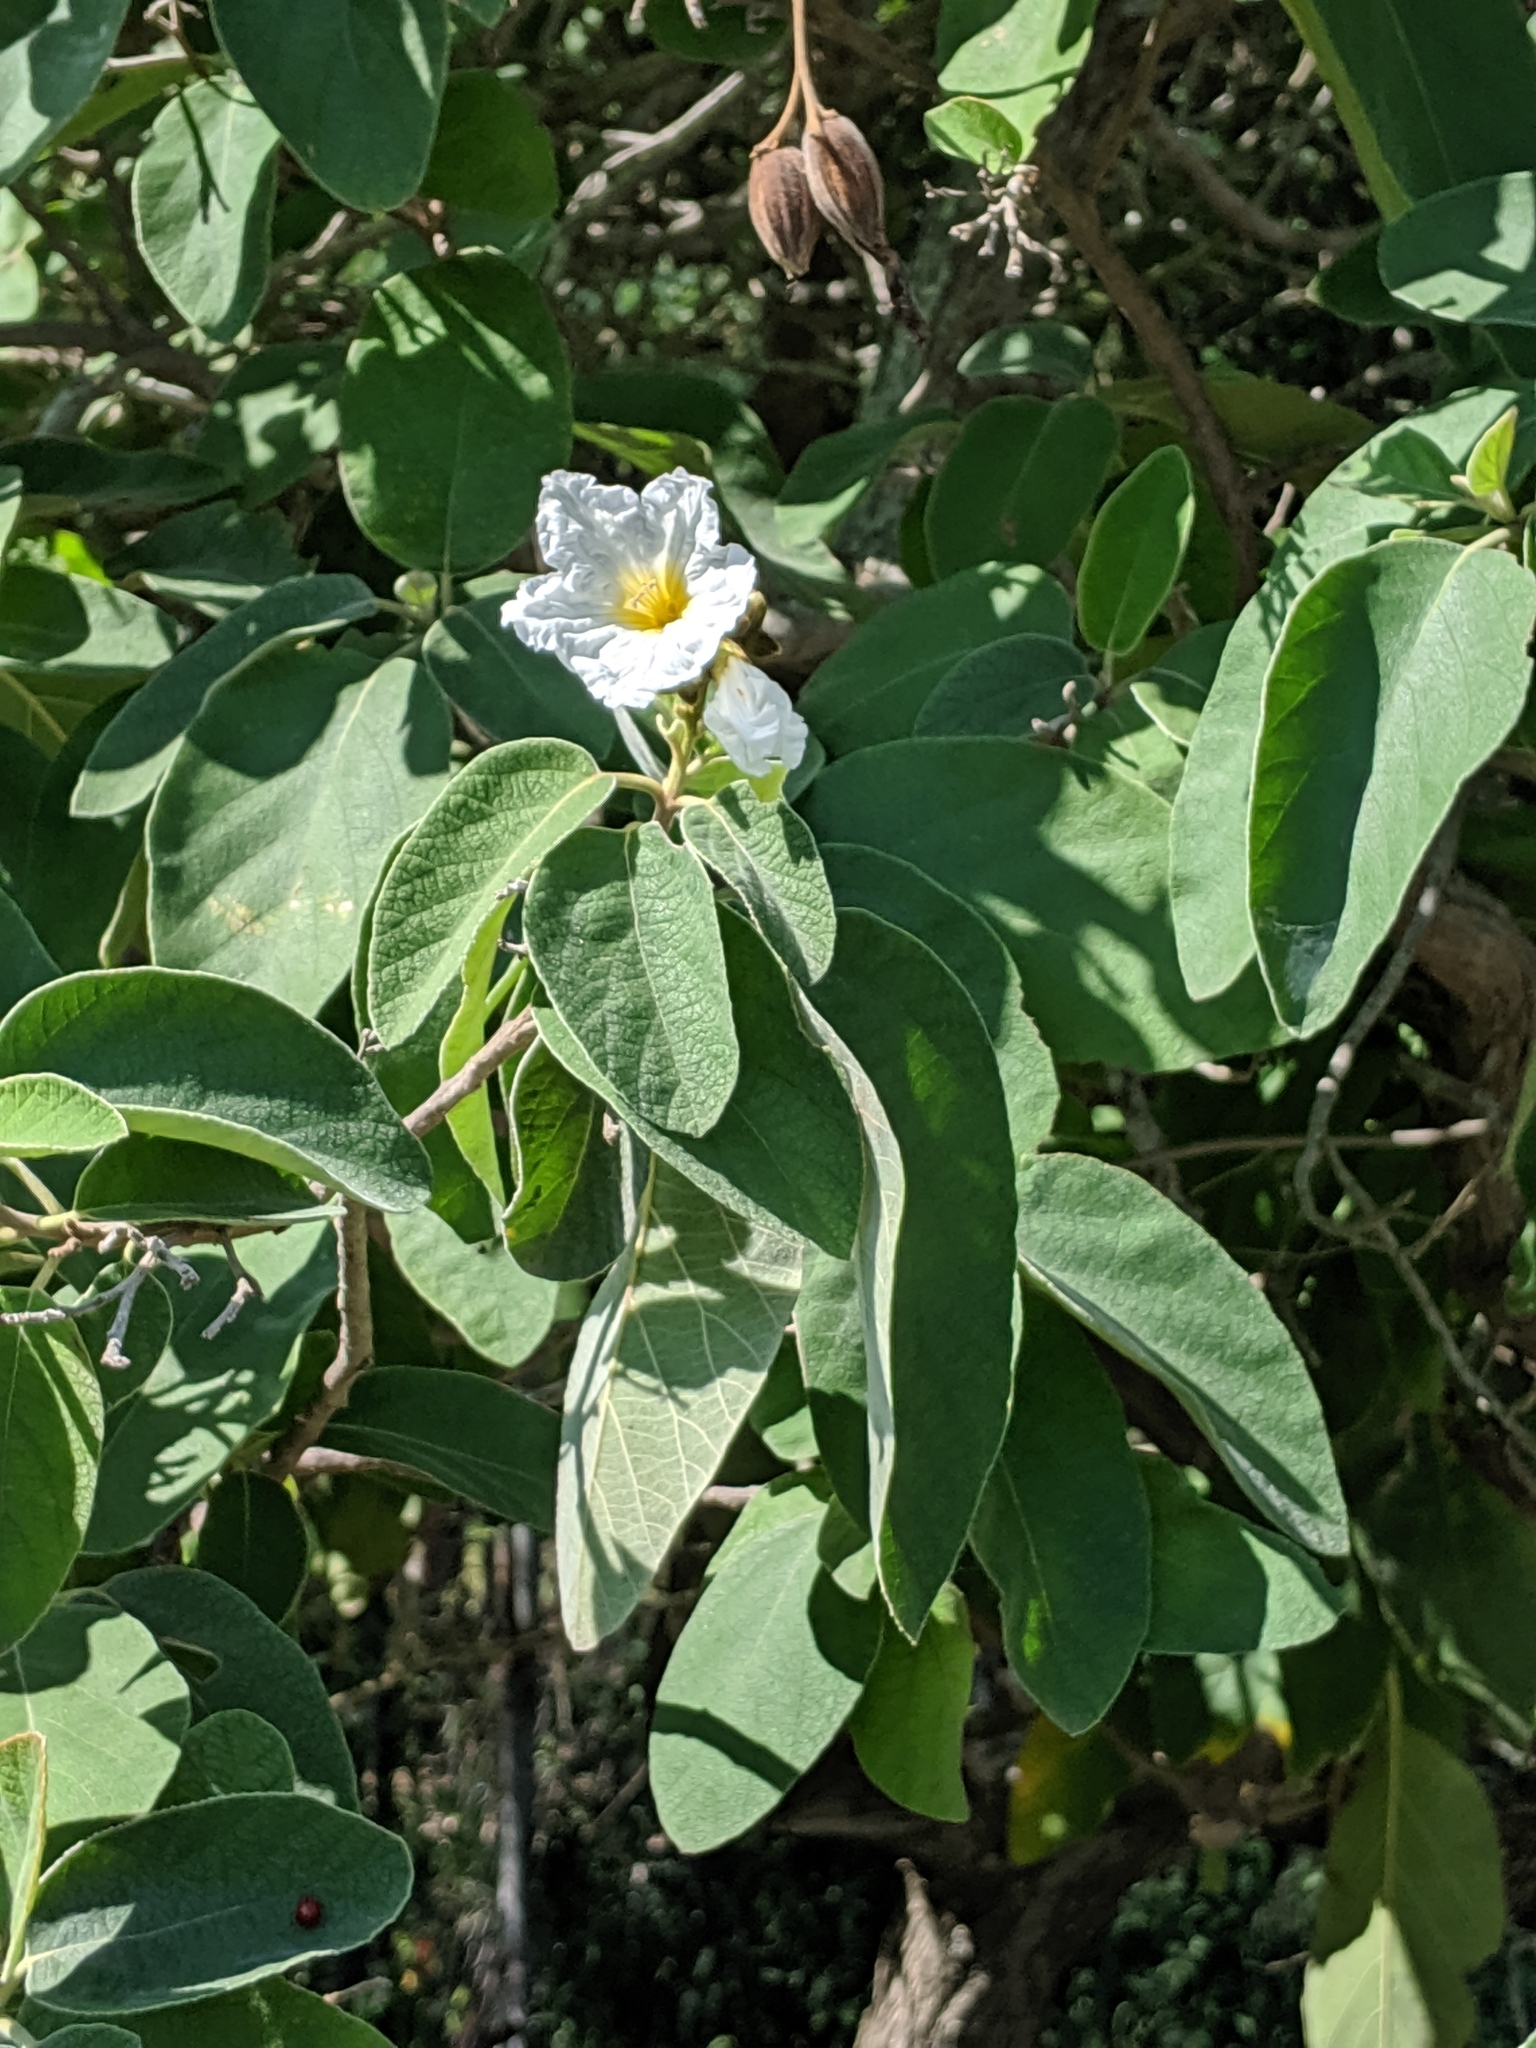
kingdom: Plantae
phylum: Tracheophyta
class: Magnoliopsida
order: Boraginales
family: Cordiaceae
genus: Cordia
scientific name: Cordia boissieri
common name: Mexican-olive
